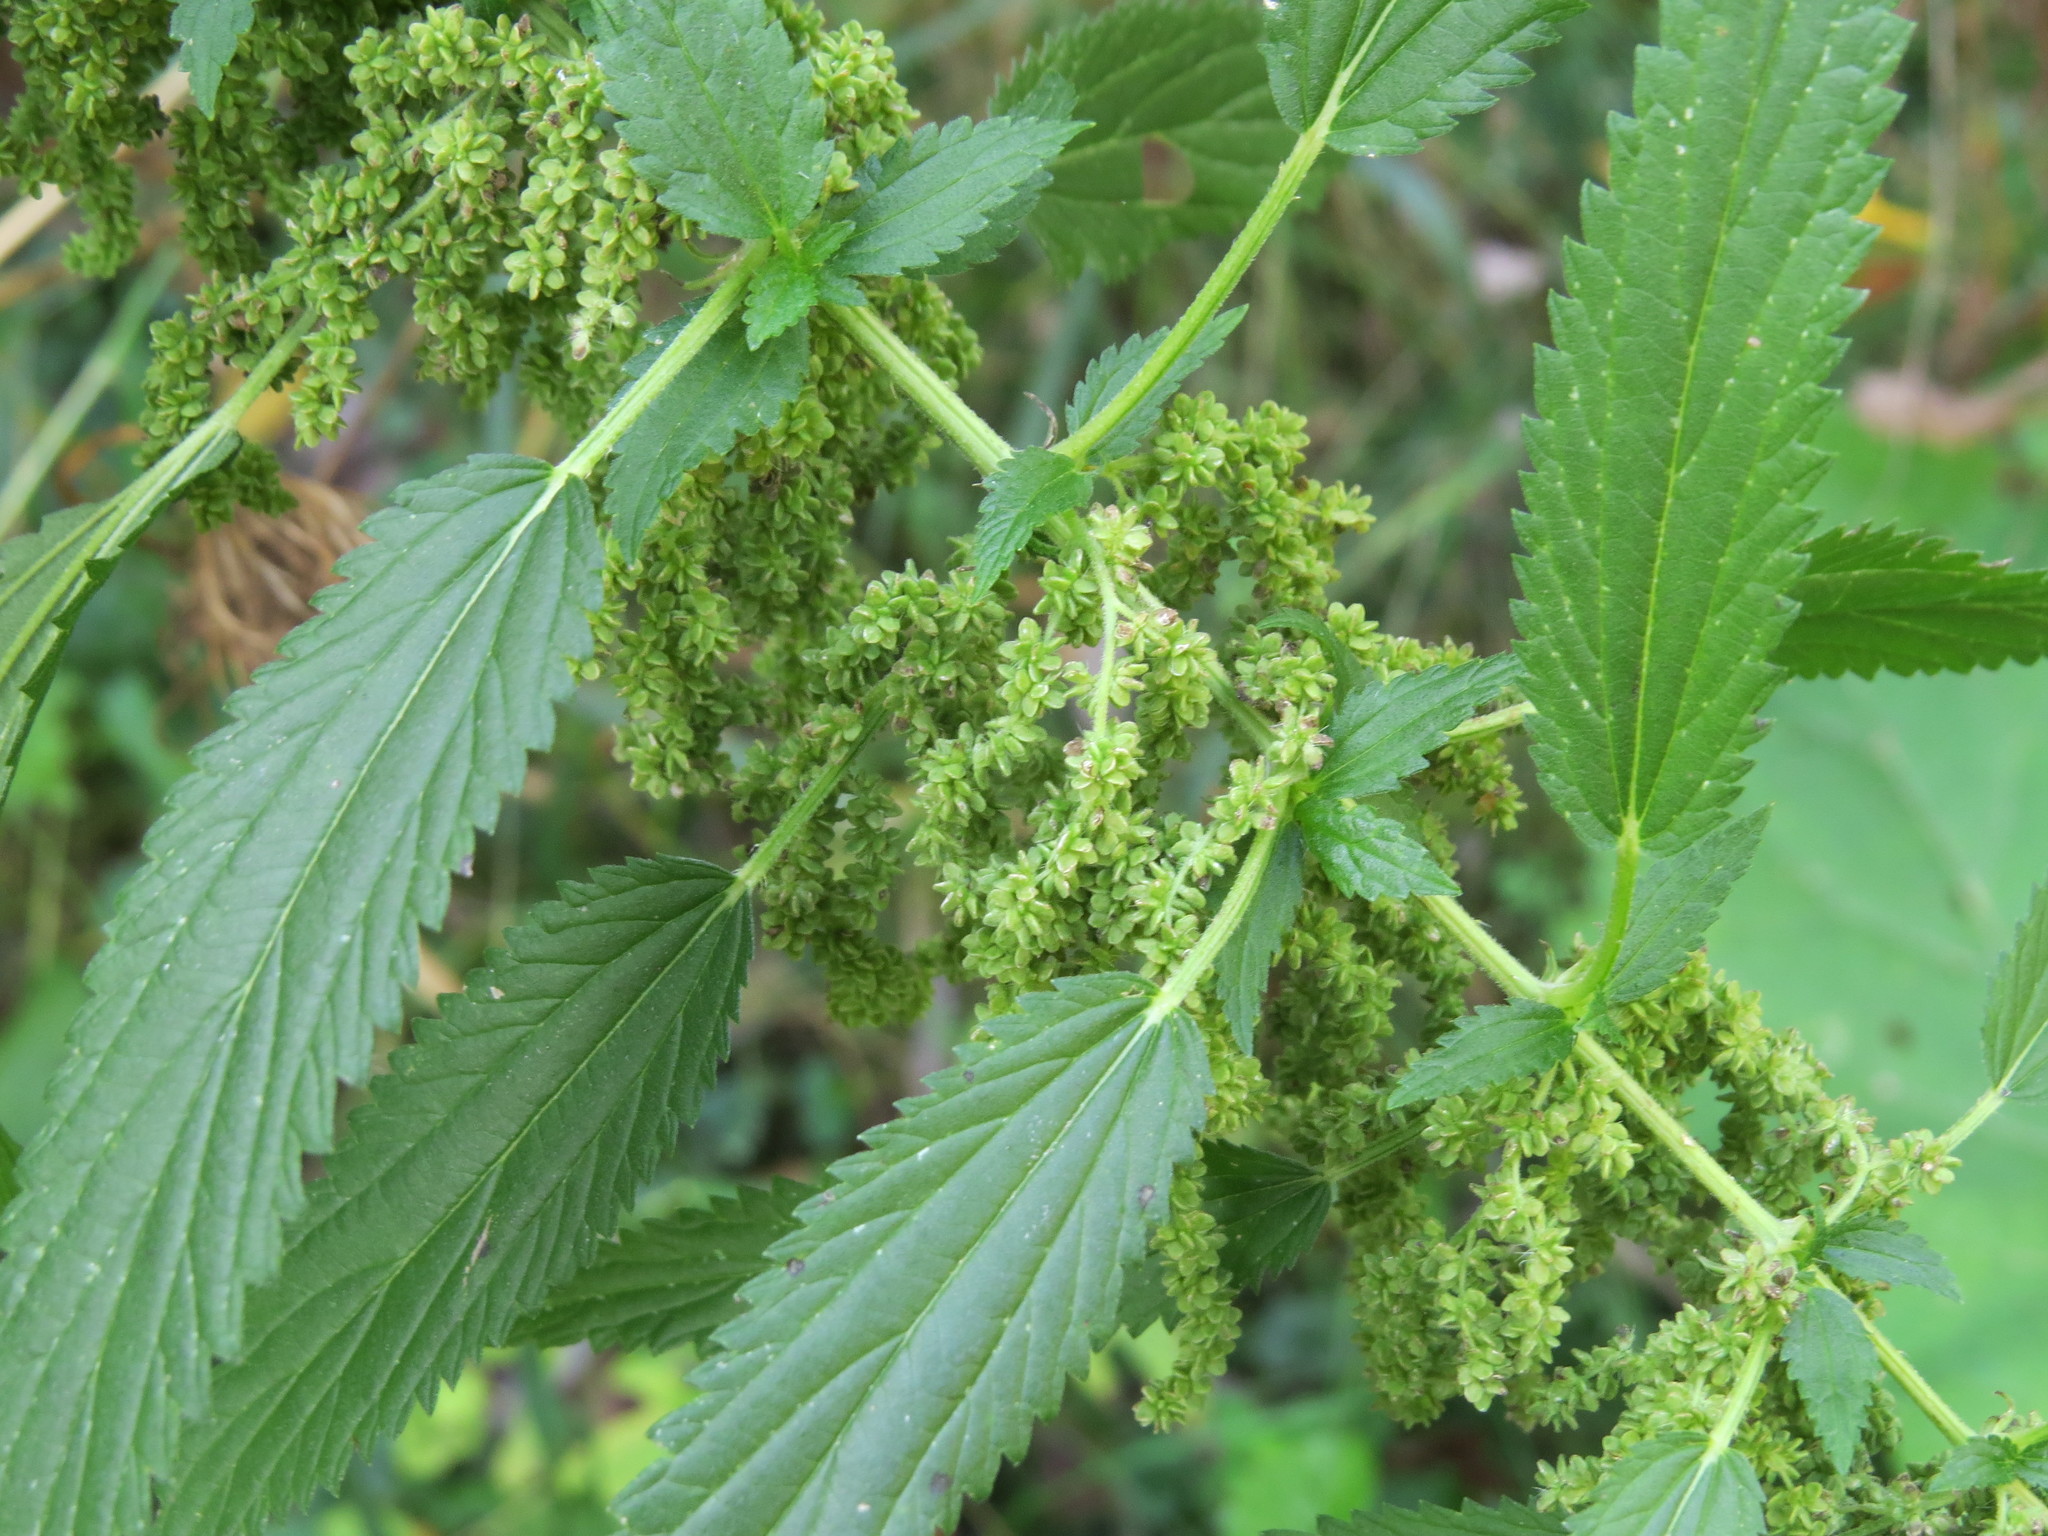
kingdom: Plantae
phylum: Tracheophyta
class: Magnoliopsida
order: Rosales
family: Urticaceae
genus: Urtica
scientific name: Urtica dioica
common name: Common nettle
